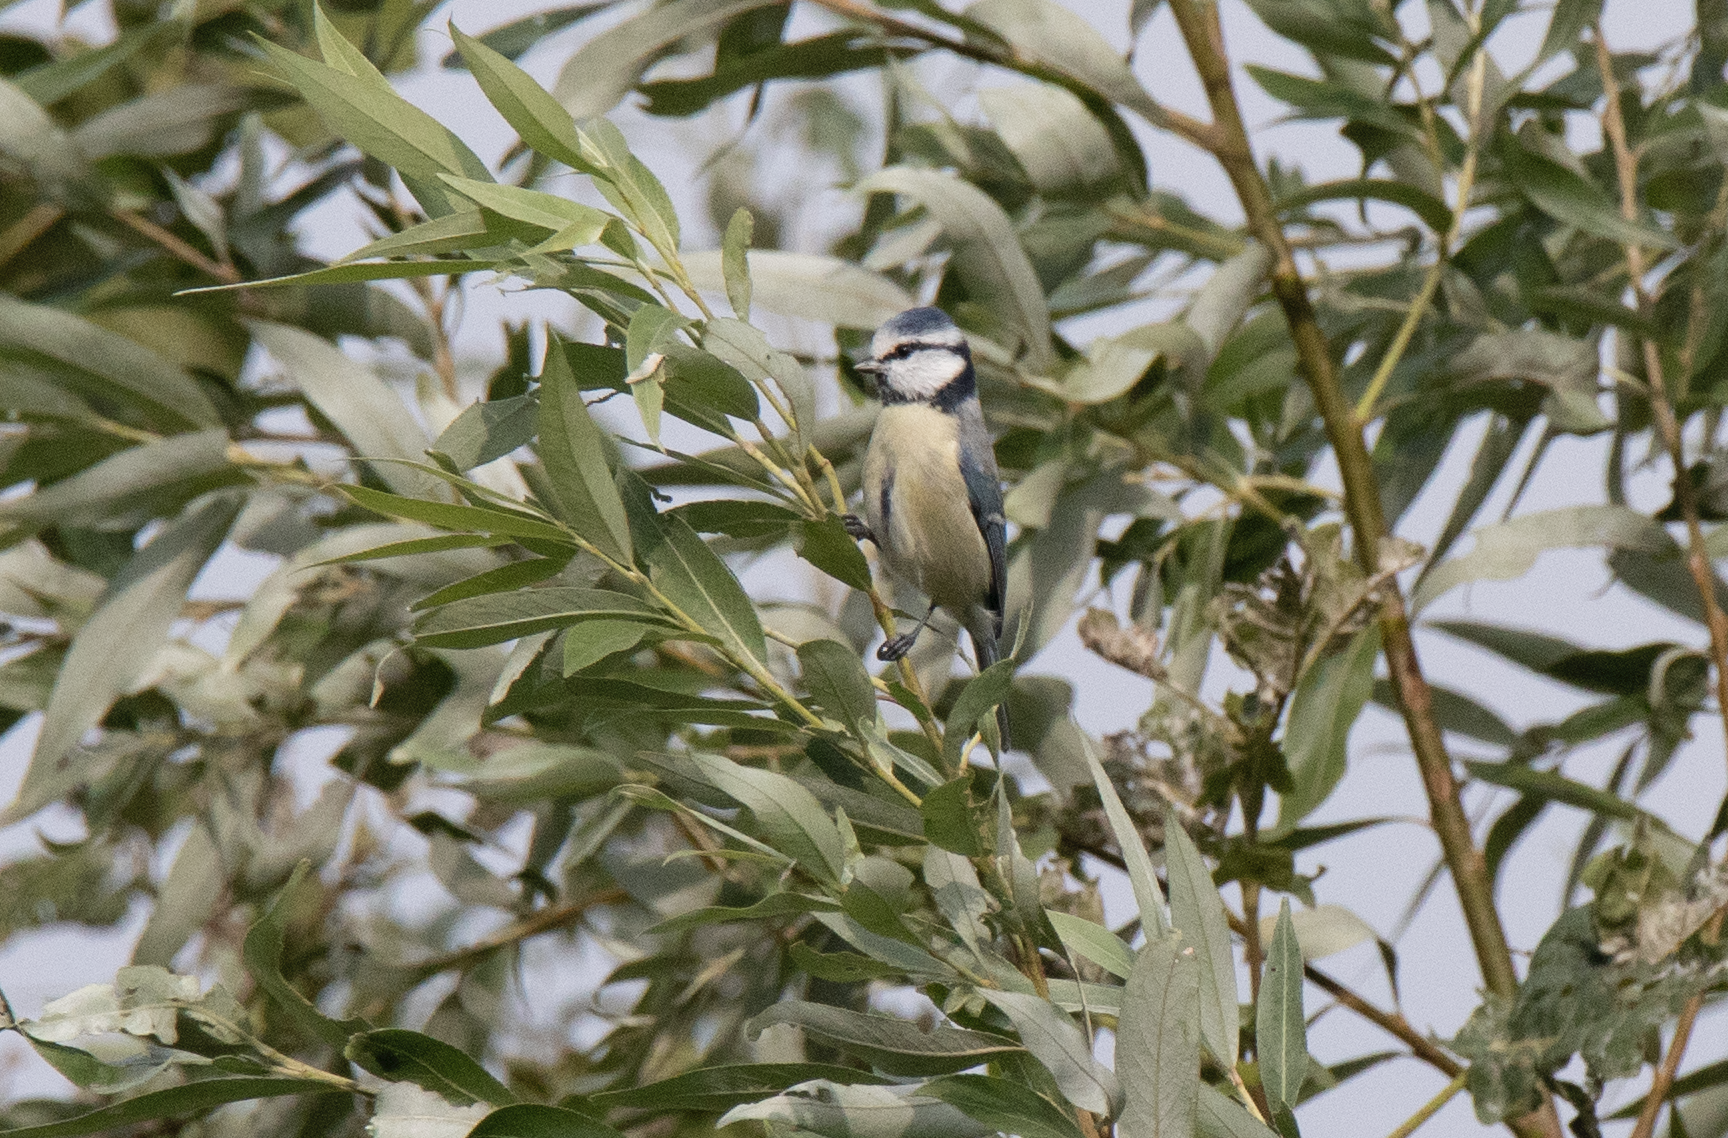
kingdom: Animalia
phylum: Chordata
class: Aves
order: Passeriformes
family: Paridae
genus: Cyanistes
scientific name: Cyanistes caeruleus
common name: Eurasian blue tit
